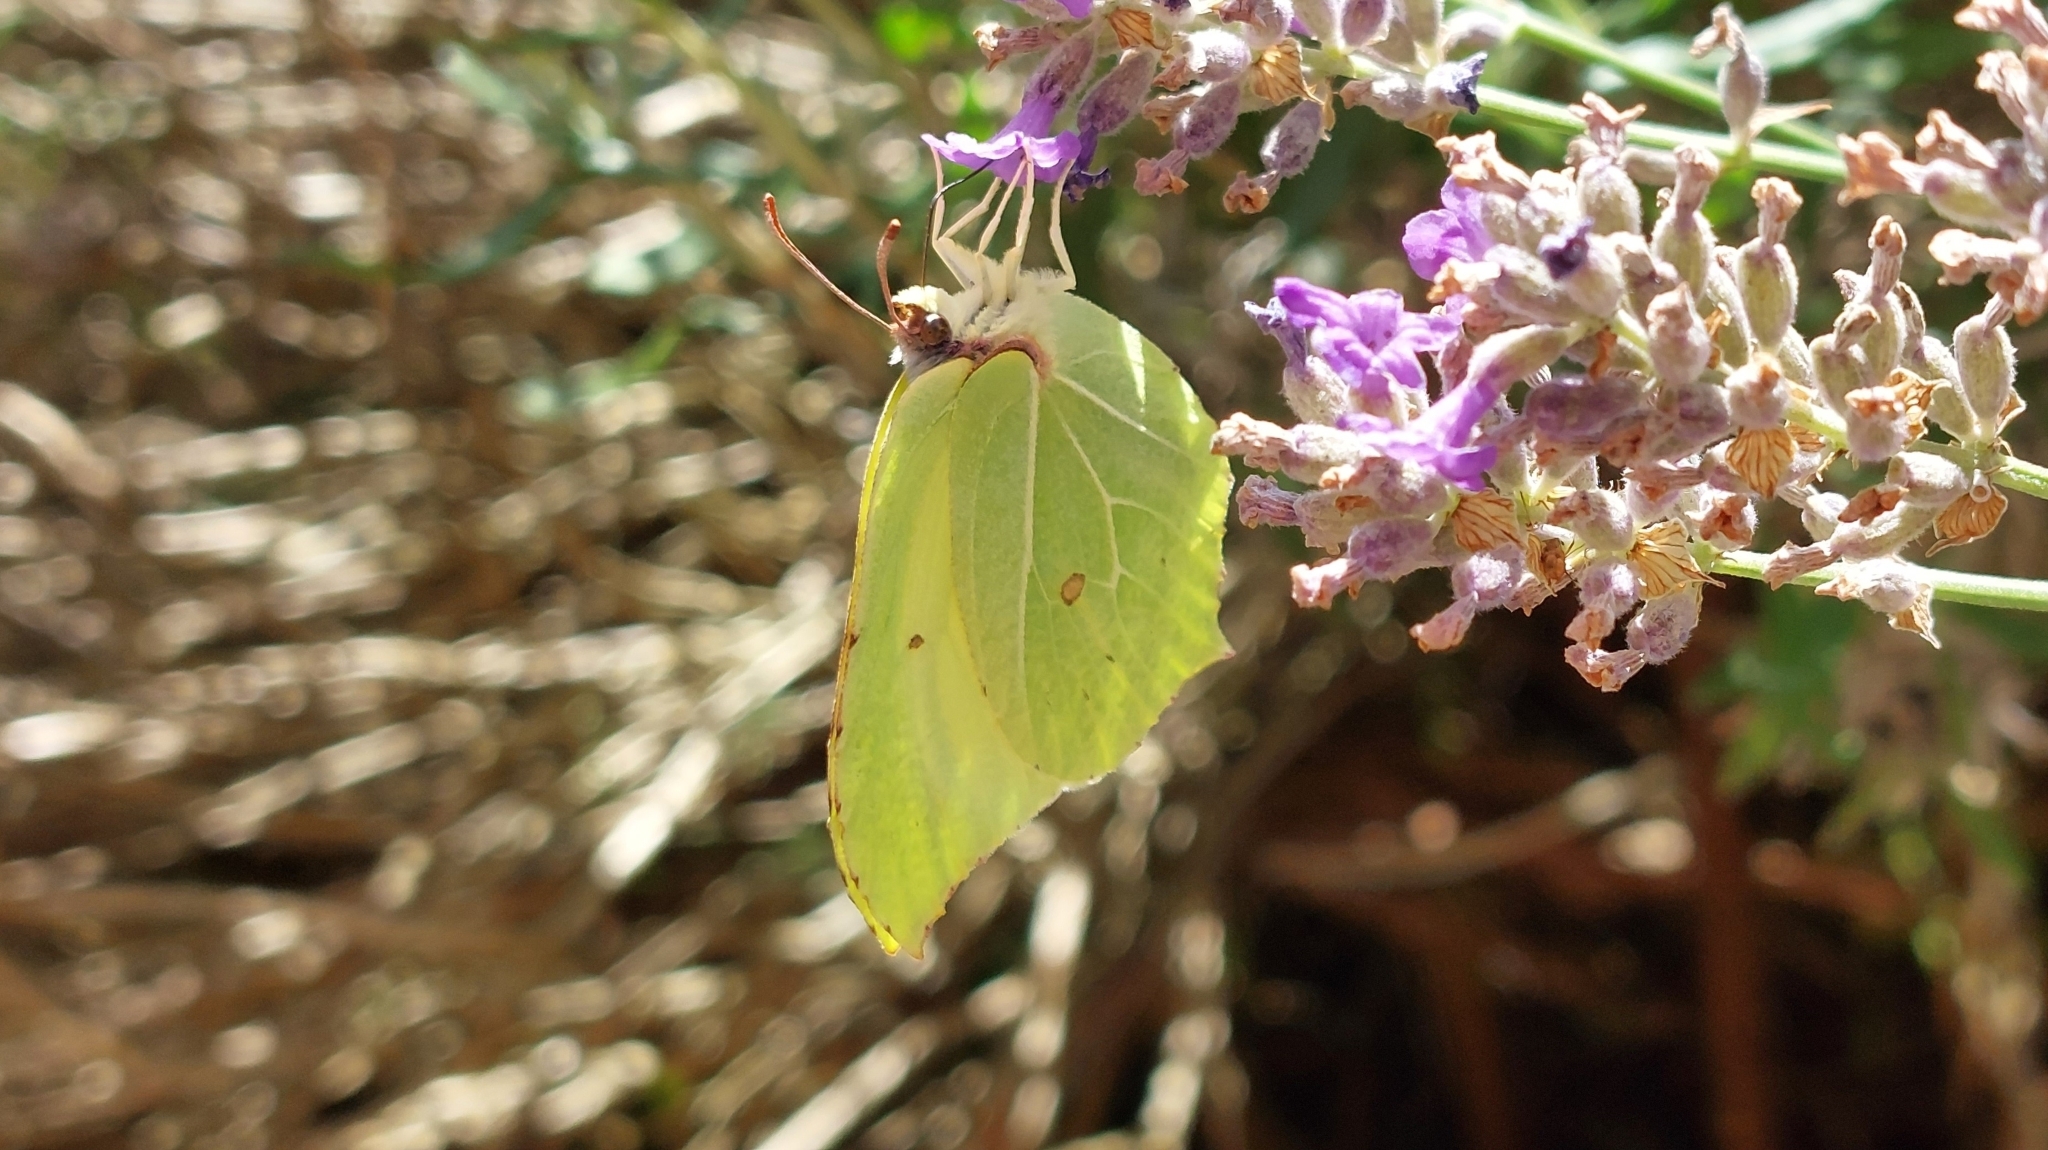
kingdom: Animalia
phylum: Arthropoda
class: Insecta
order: Lepidoptera
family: Pieridae
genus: Gonepteryx
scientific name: Gonepteryx rhamni
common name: Brimstone
